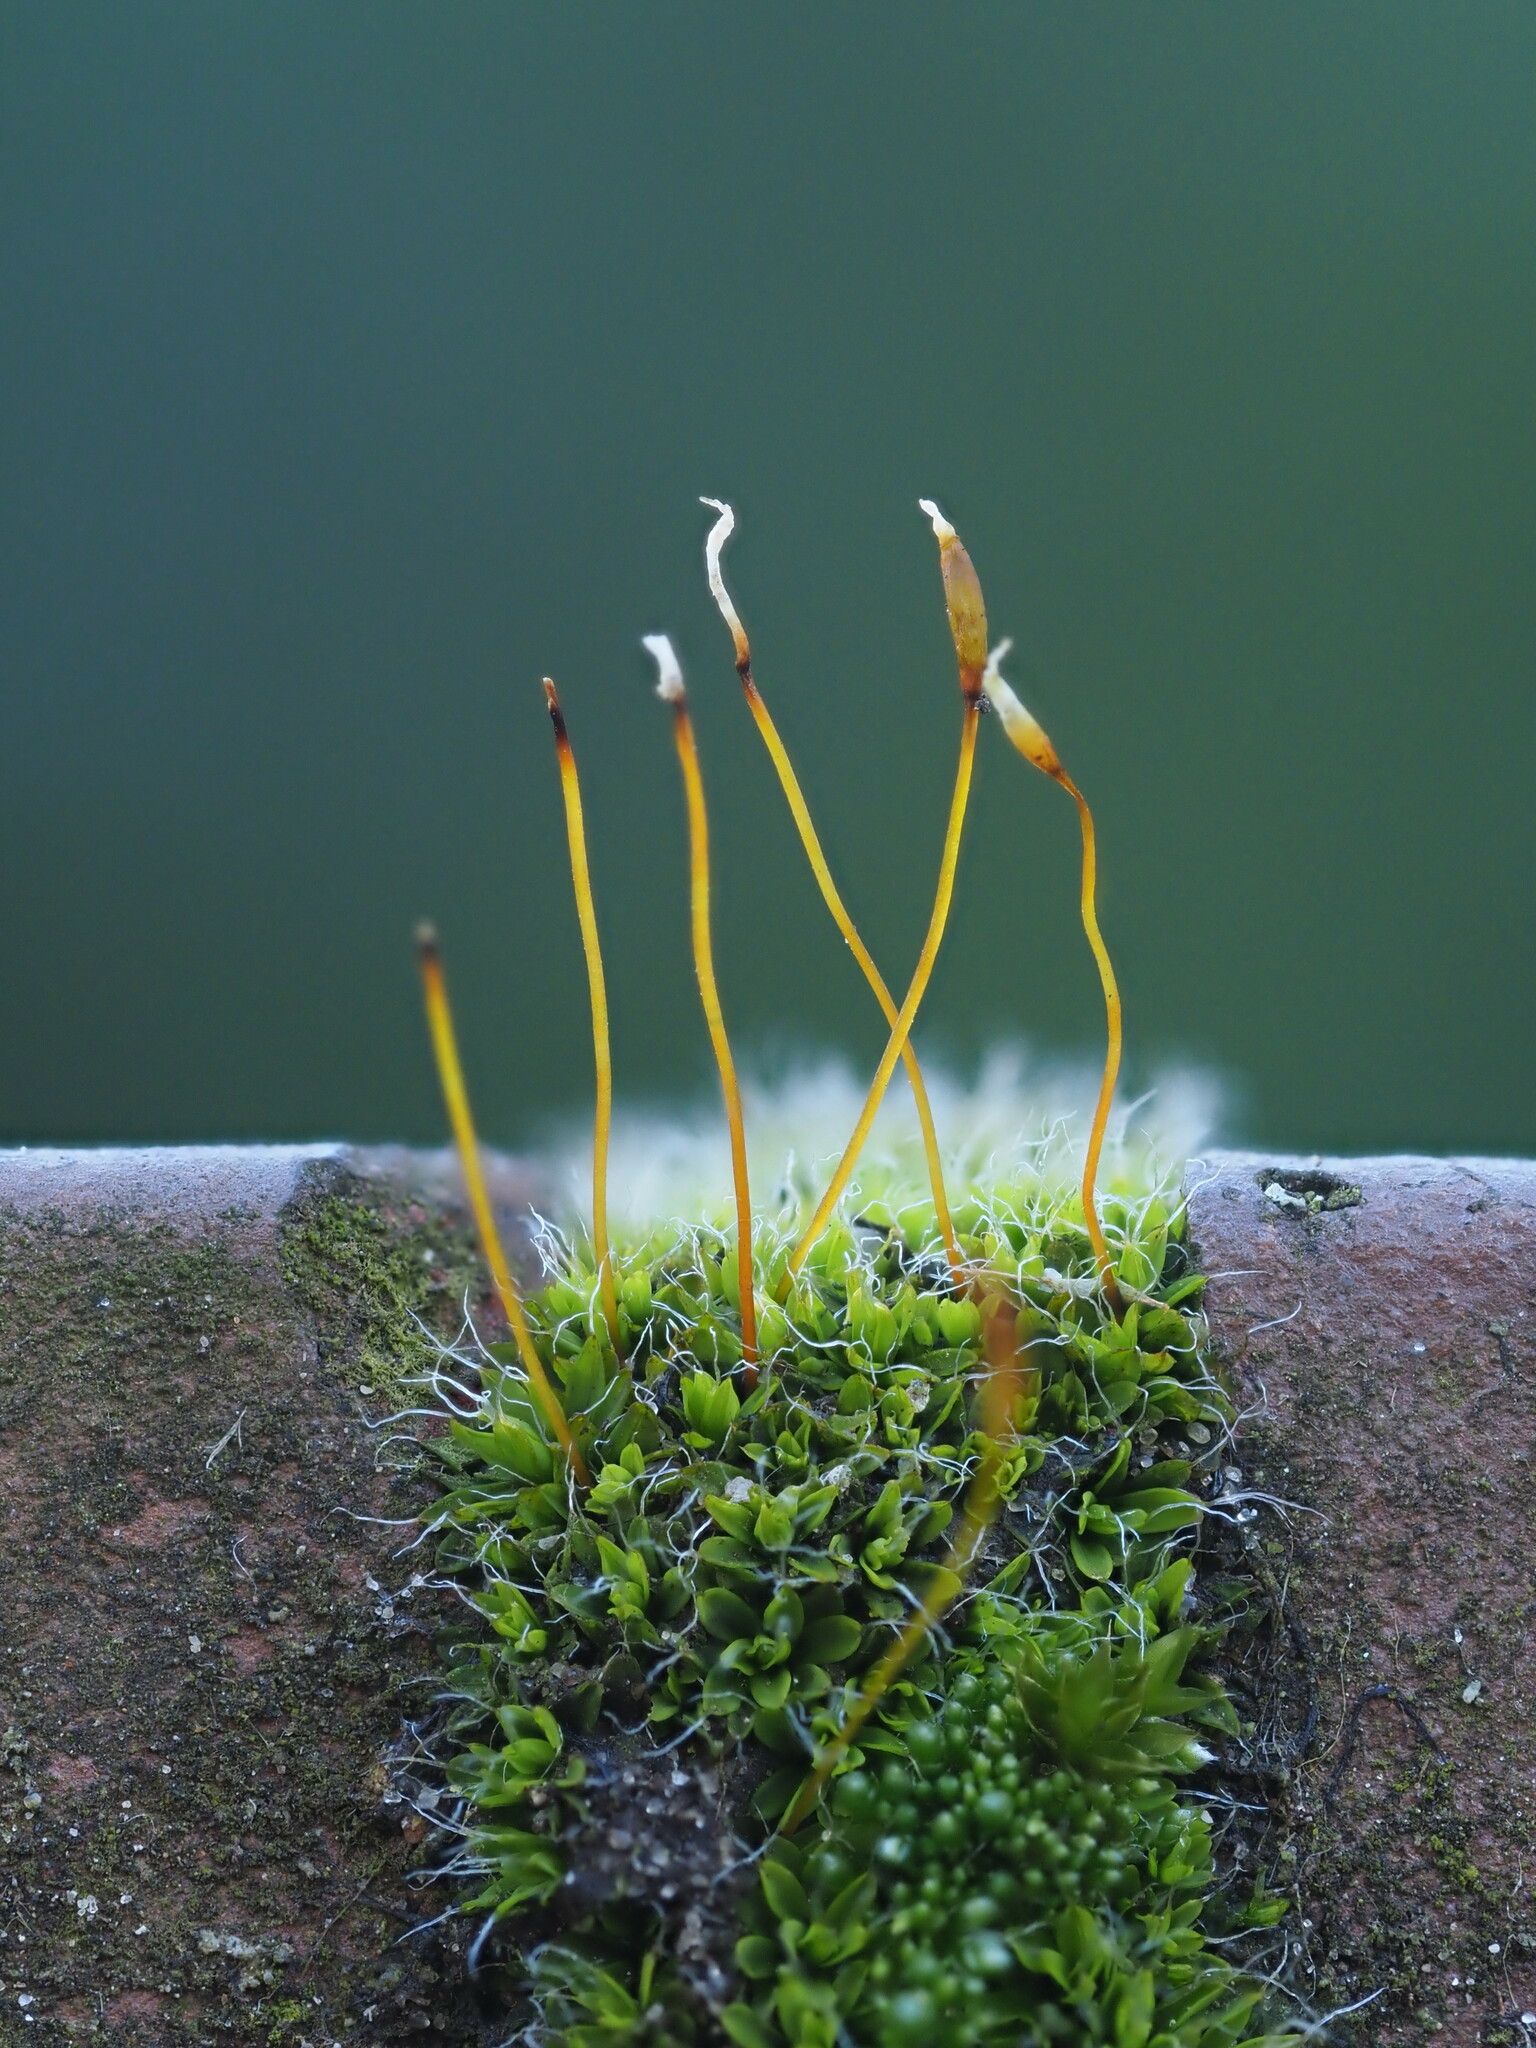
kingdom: Plantae
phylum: Bryophyta
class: Bryopsida
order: Pottiales
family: Pottiaceae
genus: Tortula
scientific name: Tortula muralis
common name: Wall screw-moss
